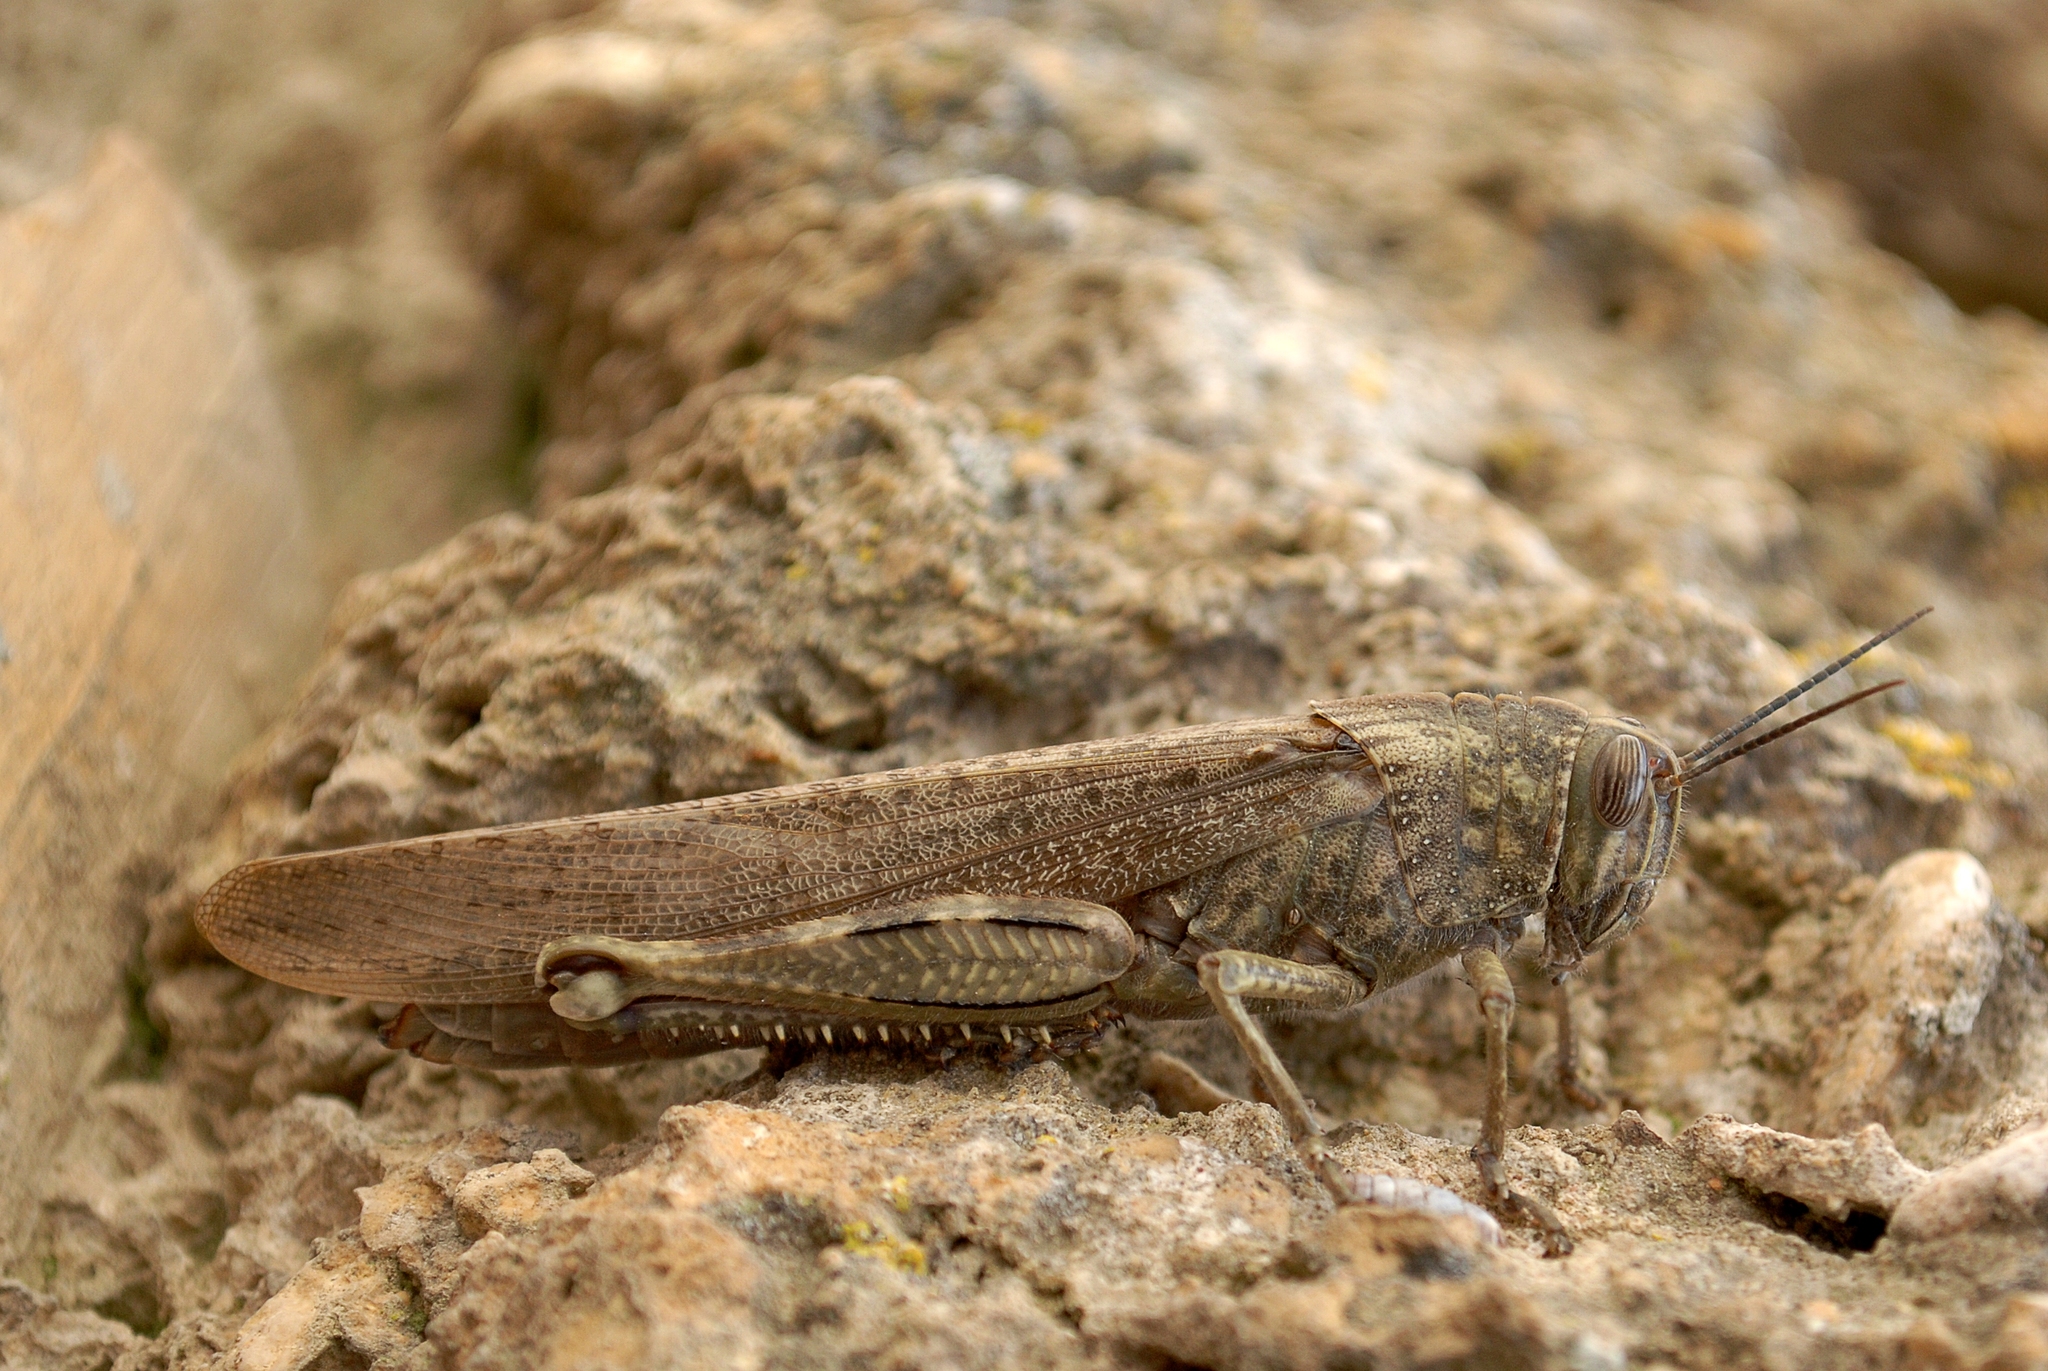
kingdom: Animalia
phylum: Arthropoda
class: Insecta
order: Orthoptera
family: Acrididae
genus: Anacridium
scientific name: Anacridium aegyptium
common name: Egyptian grasshopper
